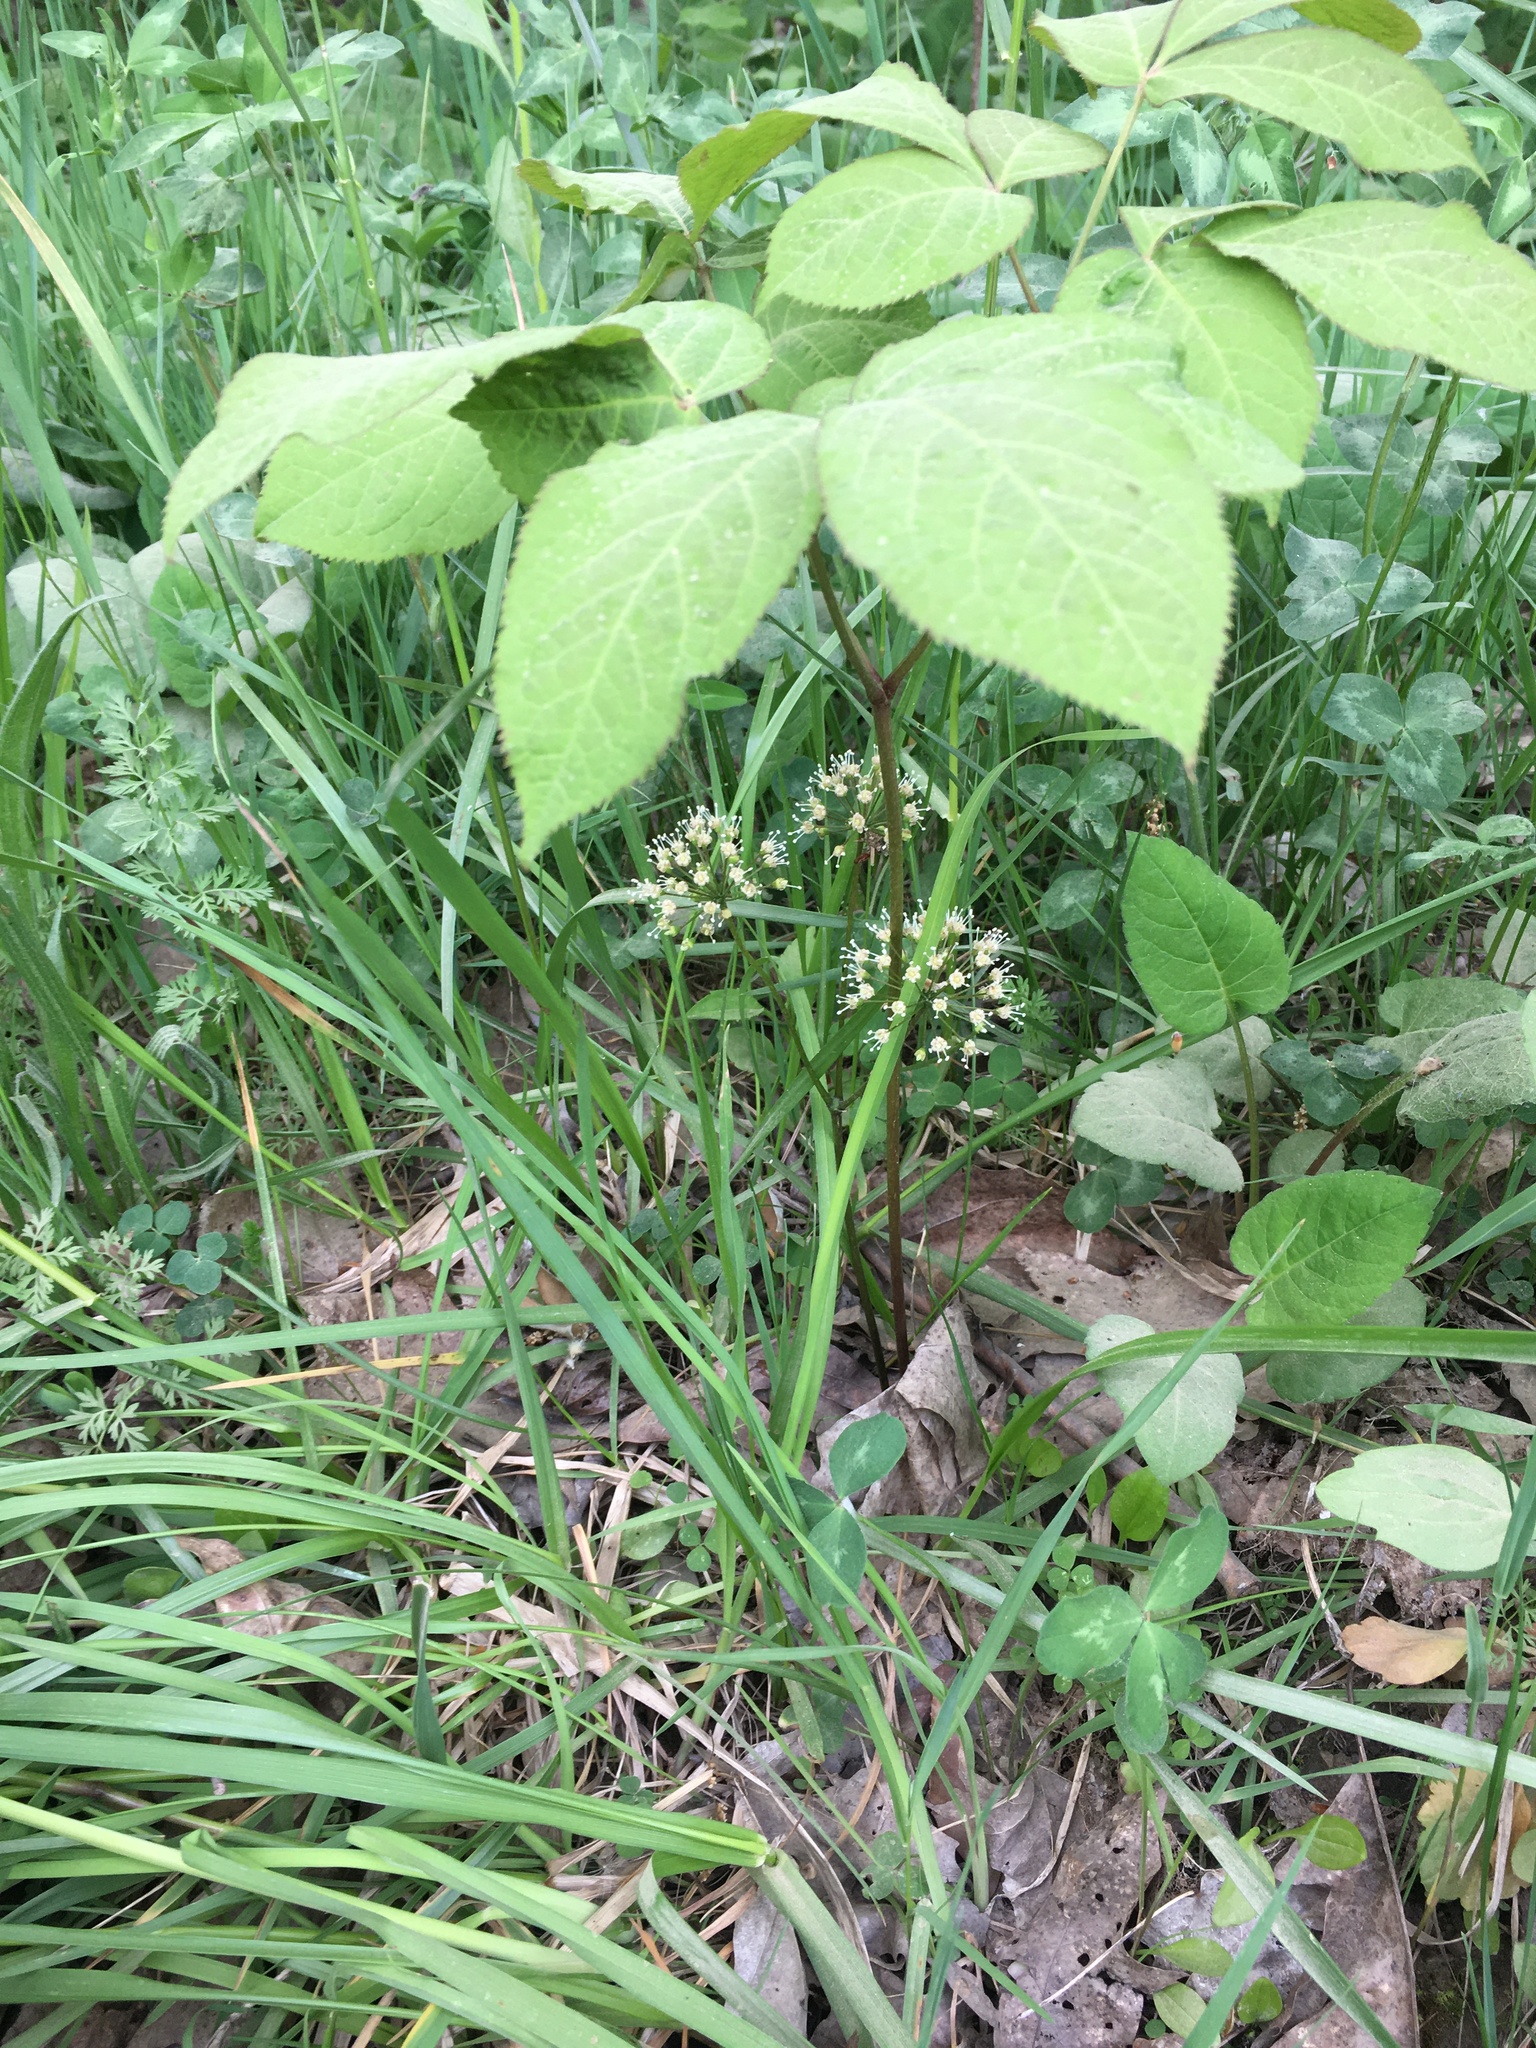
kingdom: Plantae
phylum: Tracheophyta
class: Magnoliopsida
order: Apiales
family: Araliaceae
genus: Aralia
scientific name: Aralia nudicaulis
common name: Wild sarsaparilla
